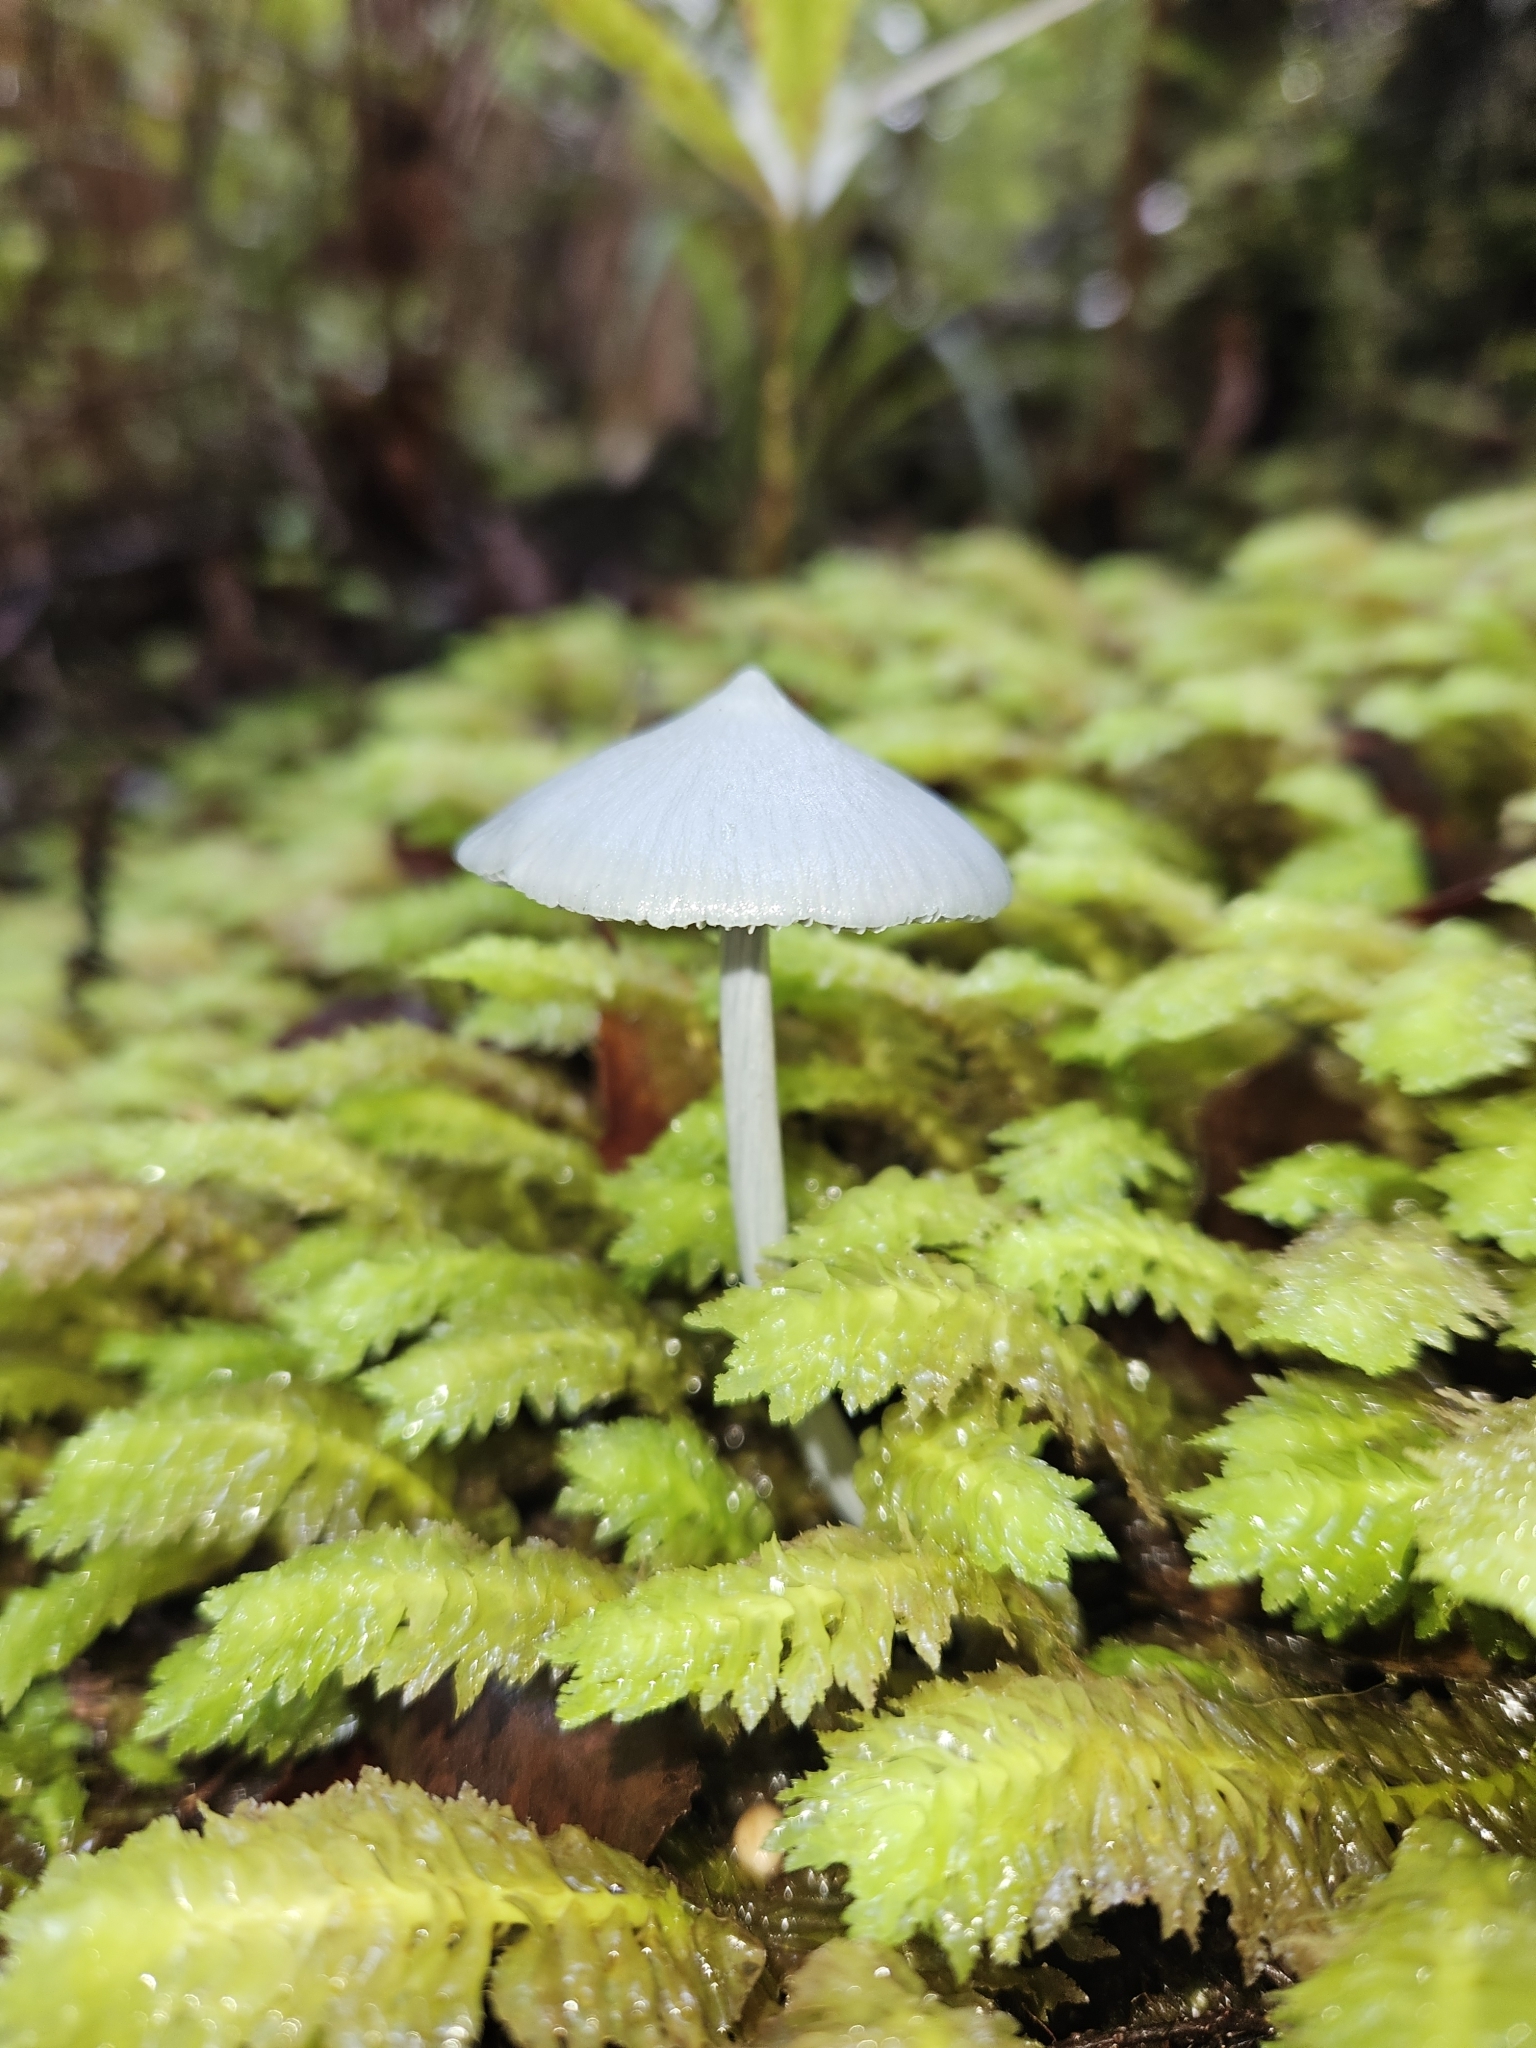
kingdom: Fungi
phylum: Basidiomycota
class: Agaricomycetes
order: Agaricales
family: Entolomataceae
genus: Entoloma
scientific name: Entoloma hochstetteri
